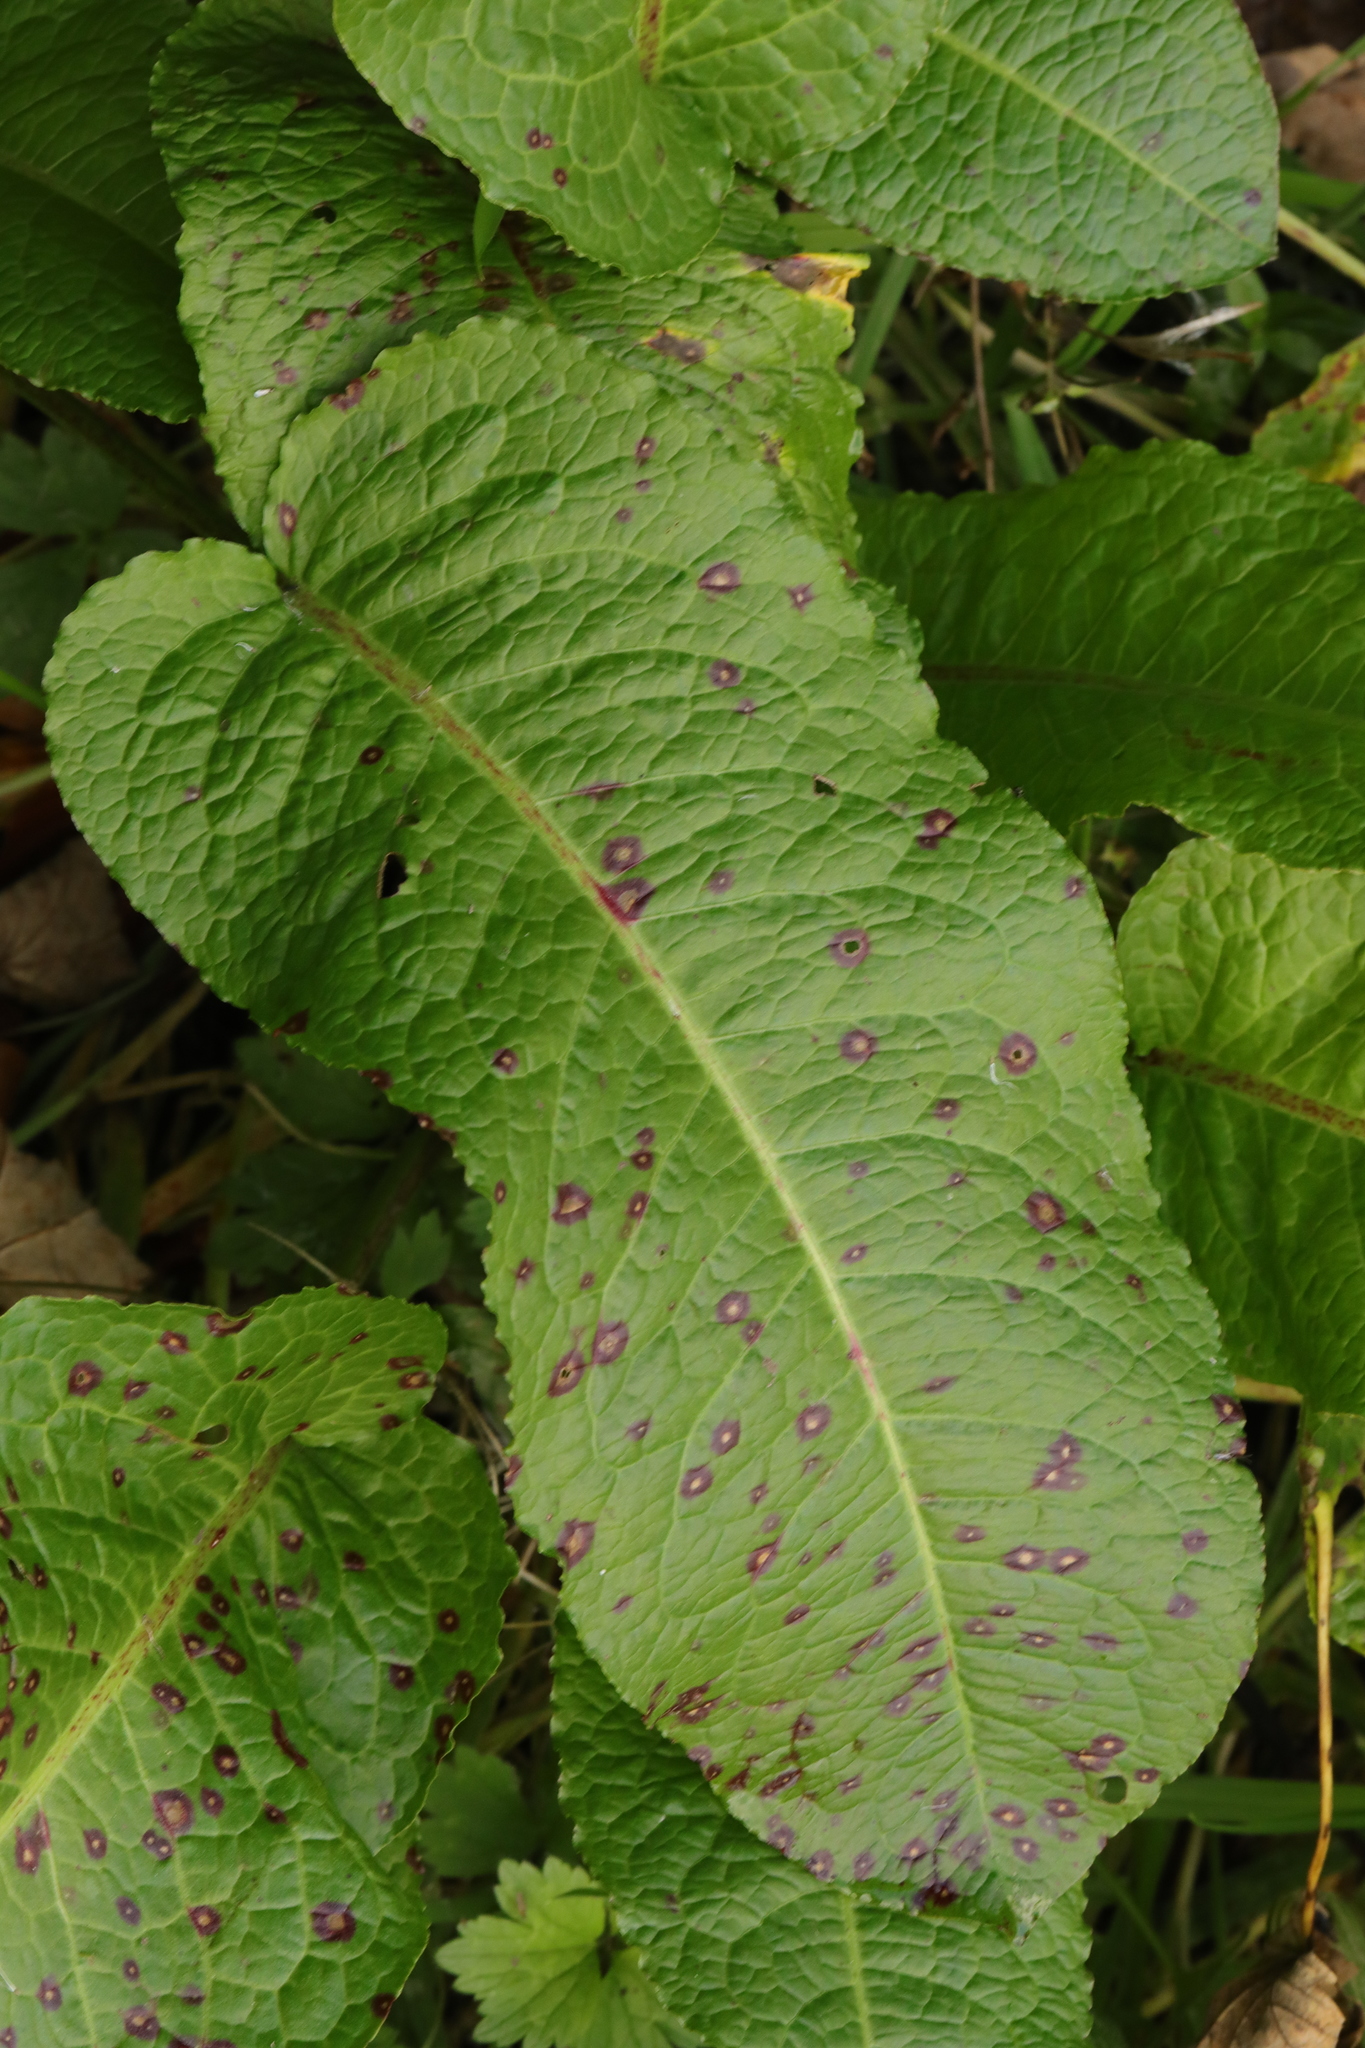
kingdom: Plantae
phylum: Tracheophyta
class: Magnoliopsida
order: Caryophyllales
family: Polygonaceae
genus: Rumex
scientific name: Rumex obtusifolius
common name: Bitter dock
